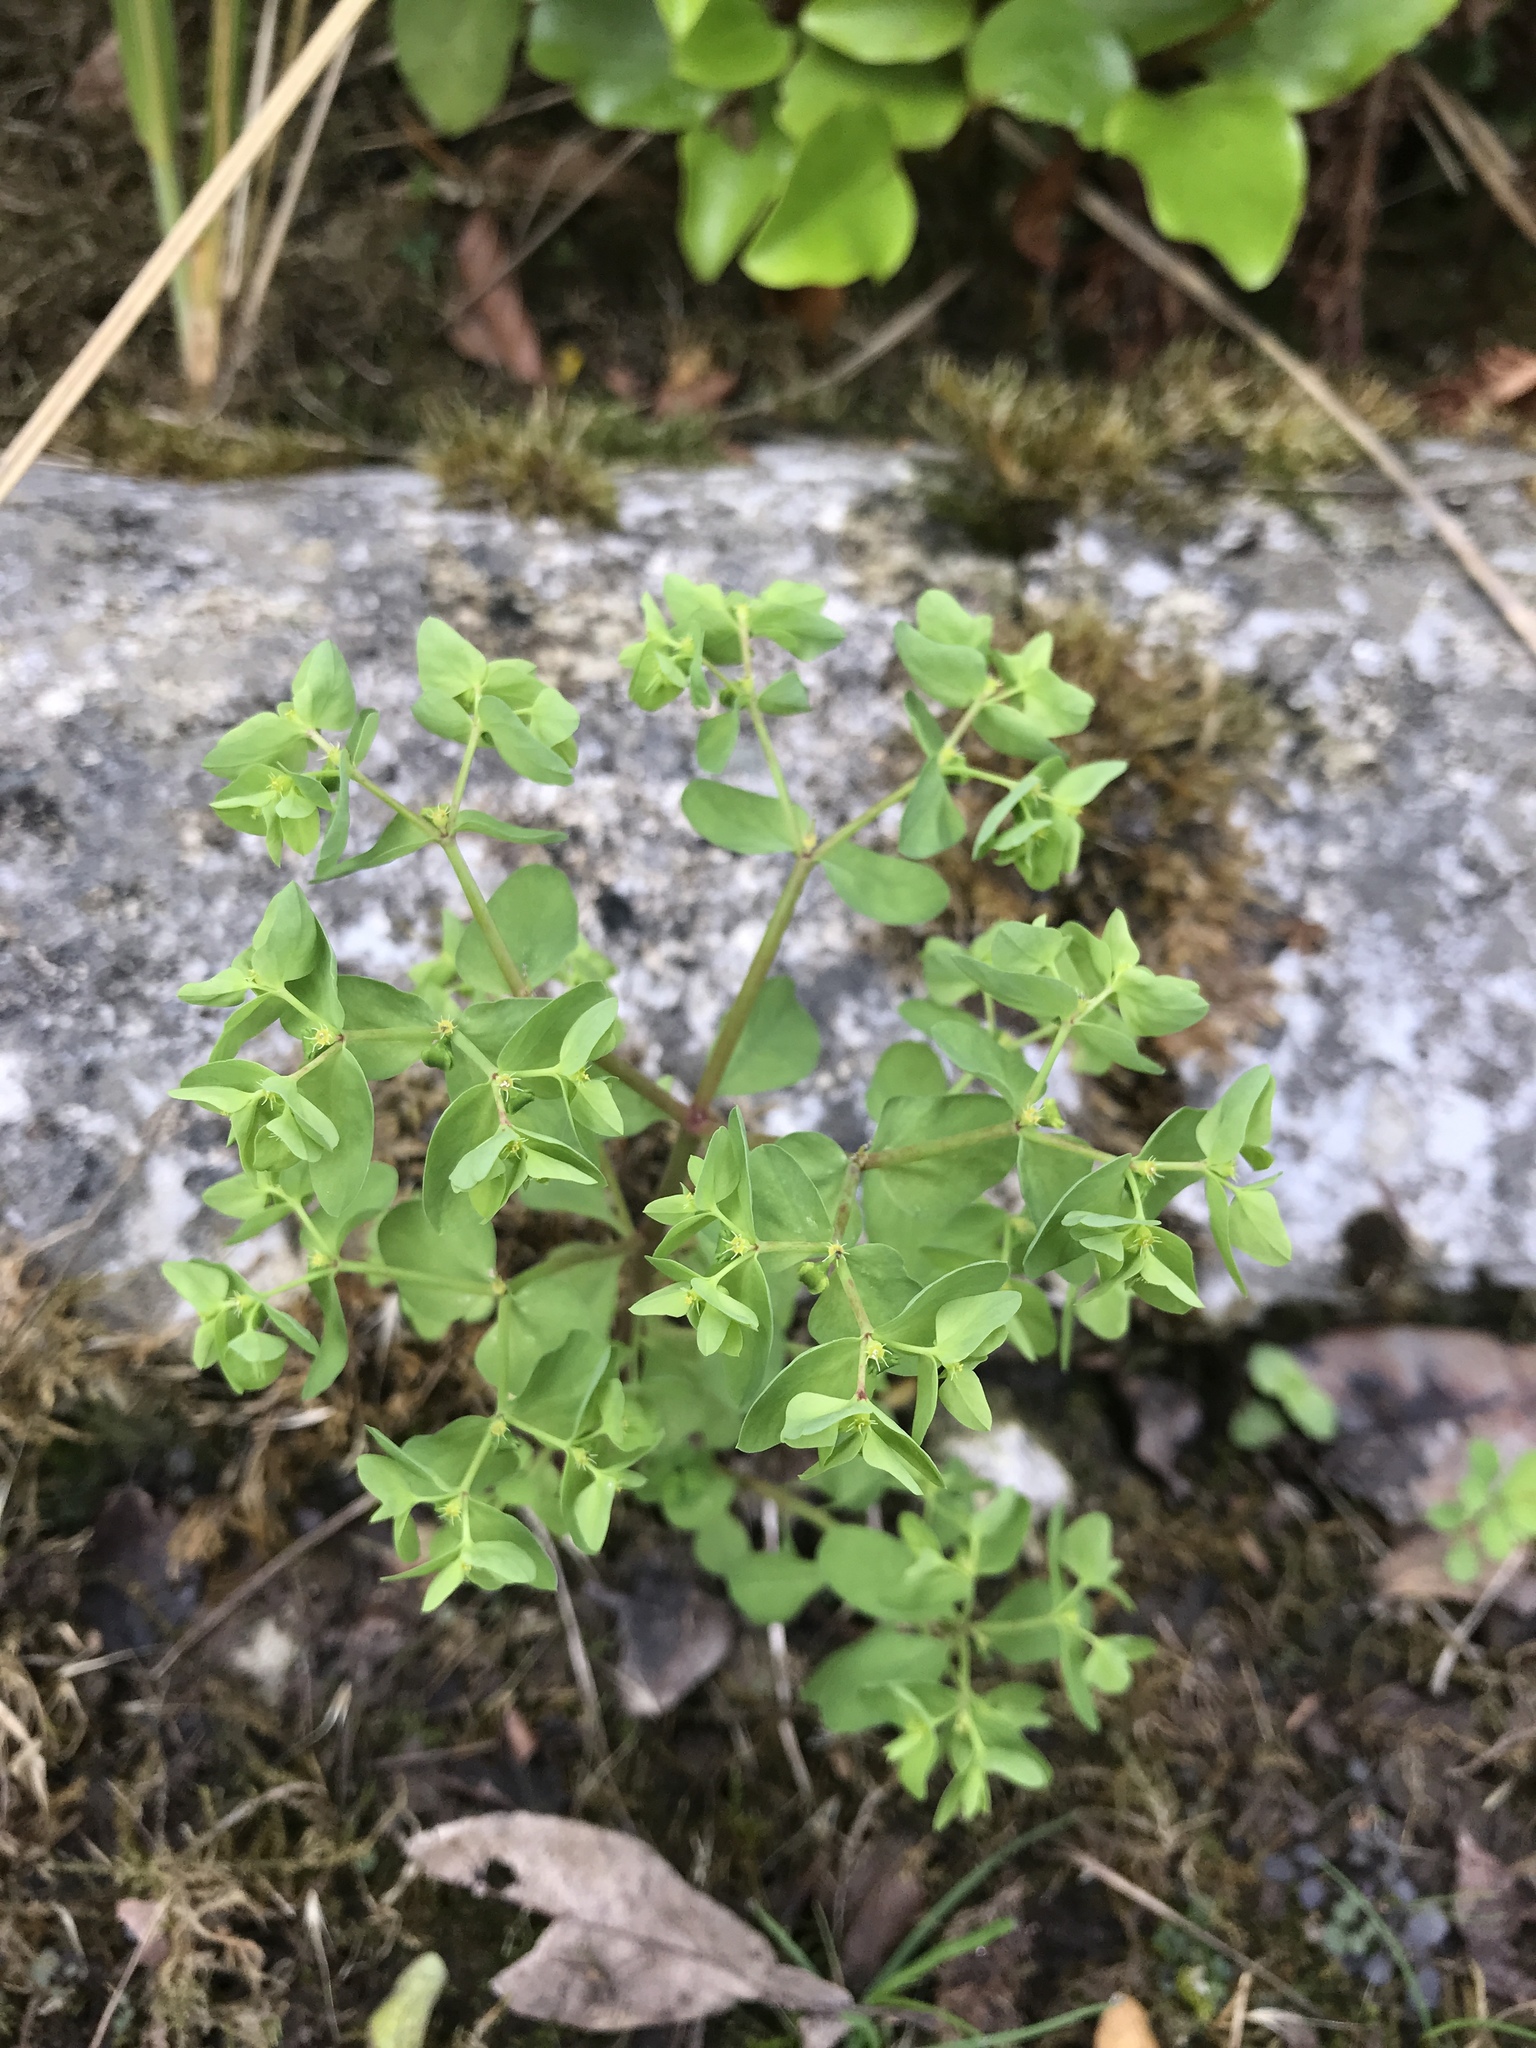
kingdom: Plantae
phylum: Tracheophyta
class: Magnoliopsida
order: Malpighiales
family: Euphorbiaceae
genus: Euphorbia
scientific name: Euphorbia peplus
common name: Petty spurge
